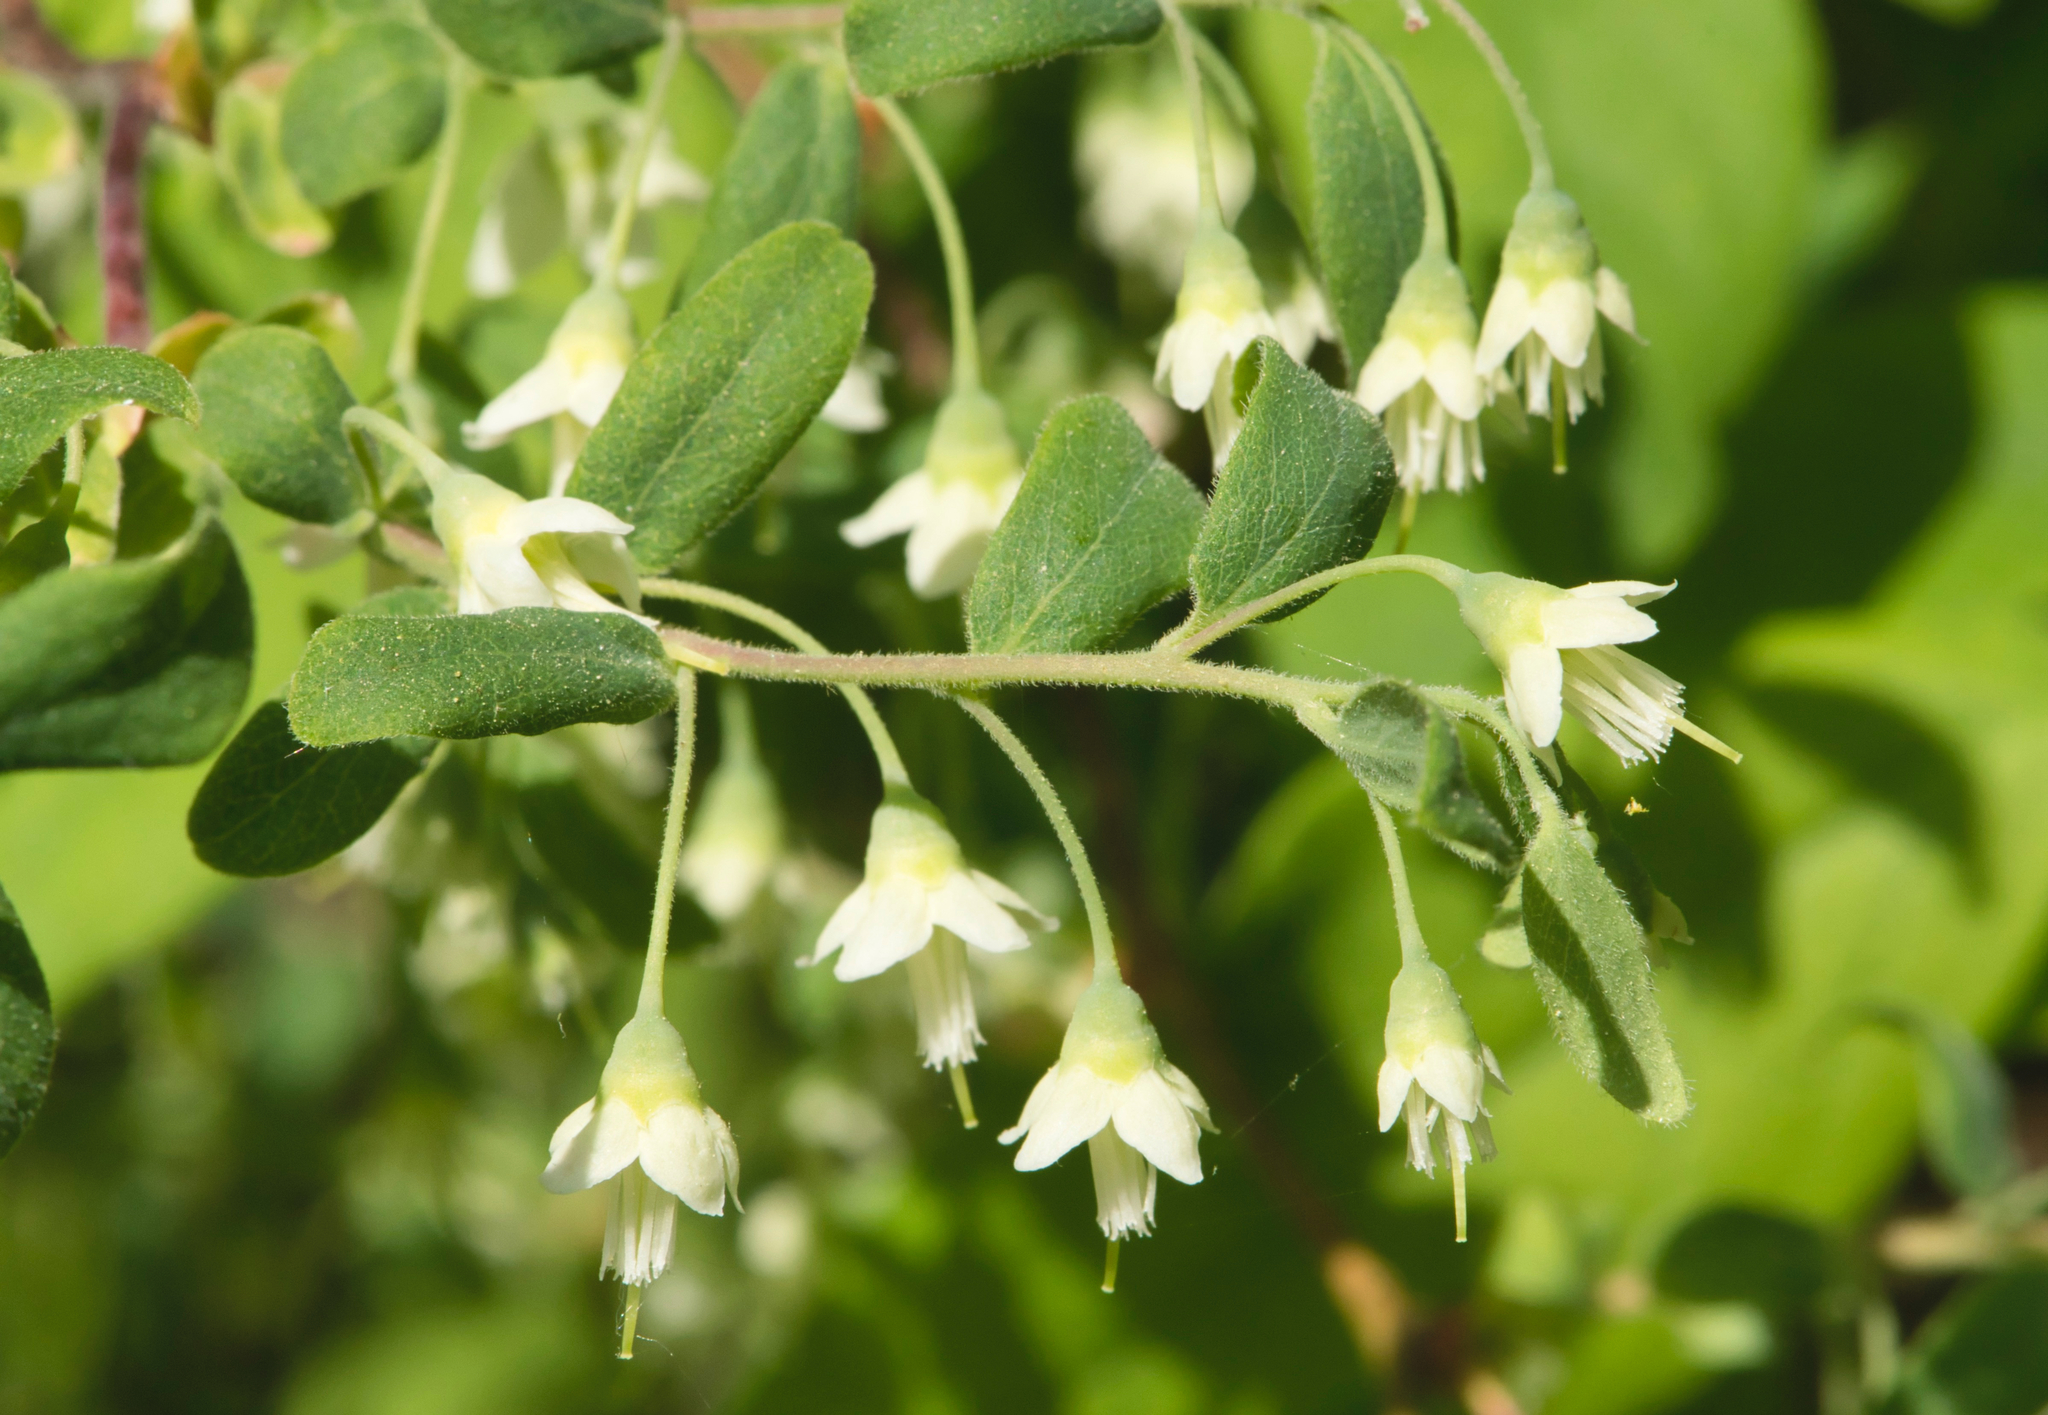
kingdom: Plantae
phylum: Tracheophyta
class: Magnoliopsida
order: Ericales
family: Ericaceae
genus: Vaccinium
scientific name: Vaccinium stamineum
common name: Deerberry
